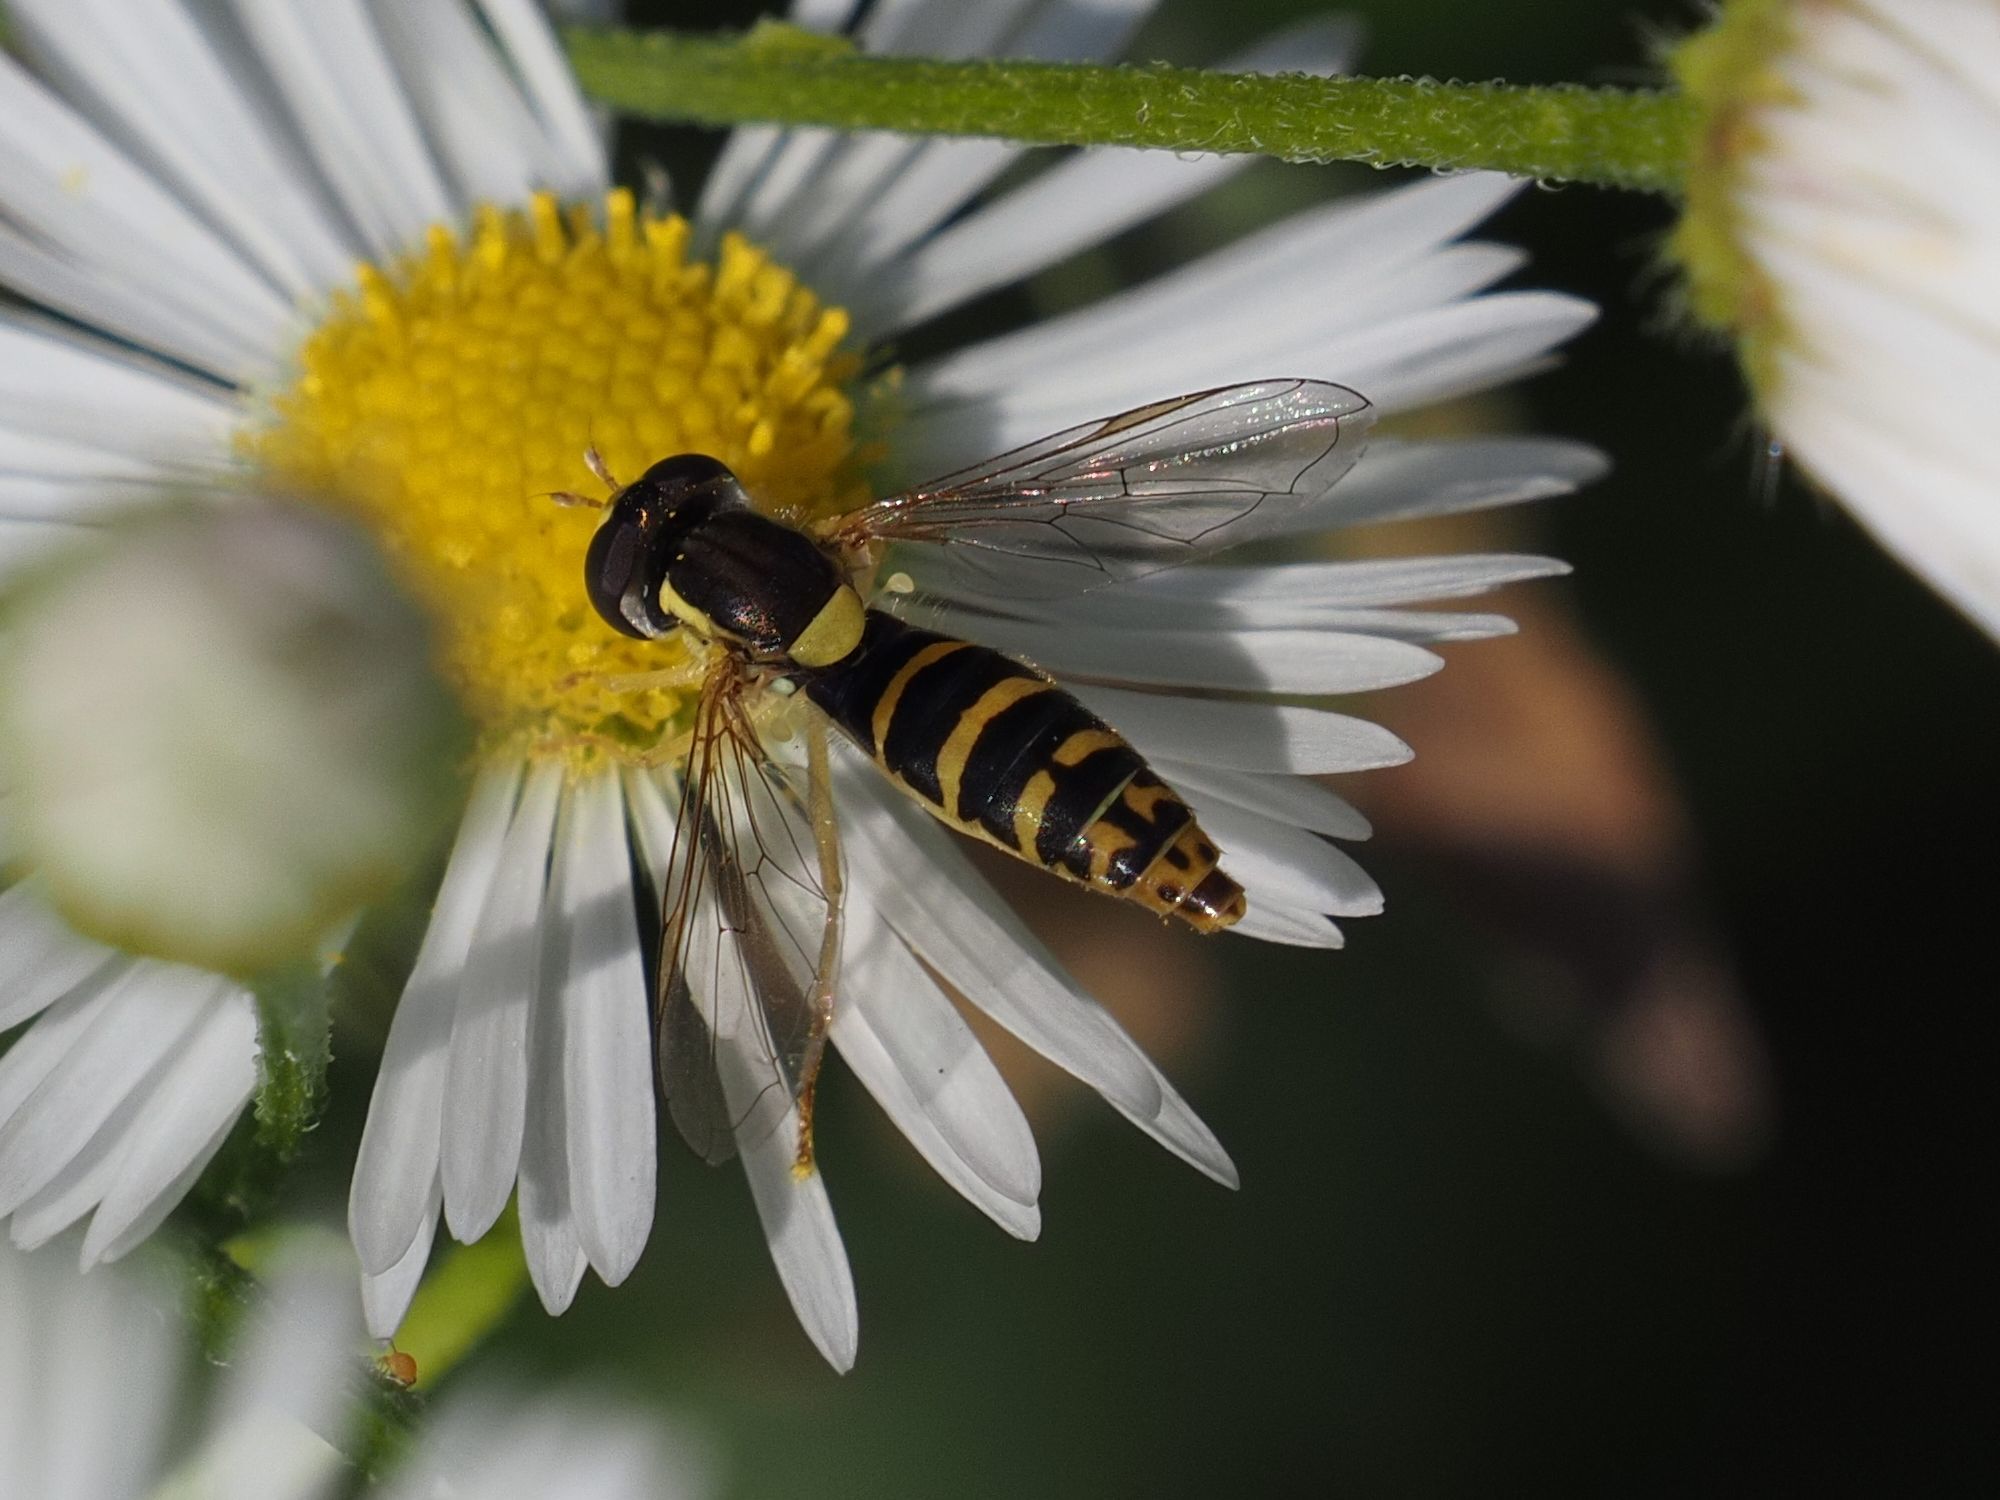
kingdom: Animalia
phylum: Arthropoda
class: Insecta
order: Diptera
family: Syrphidae
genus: Sphaerophoria
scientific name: Sphaerophoria
